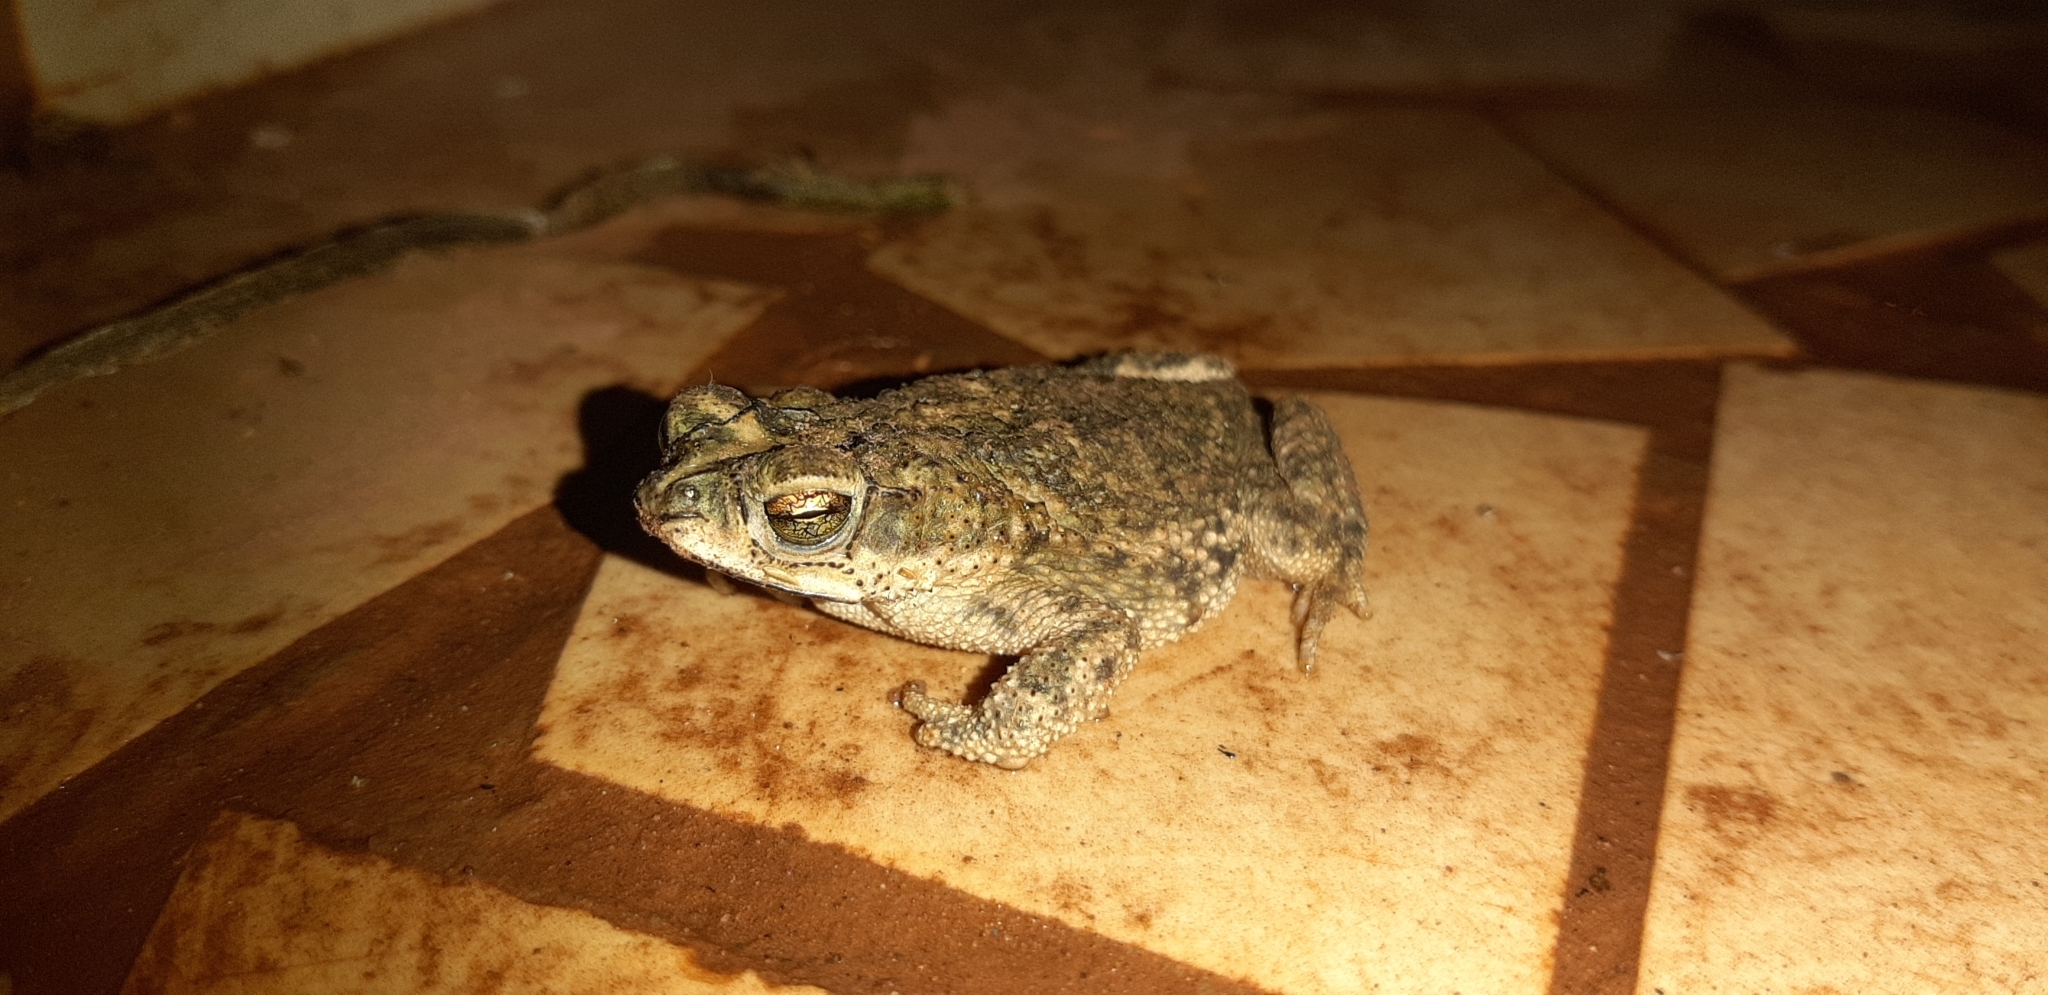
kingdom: Animalia
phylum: Chordata
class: Amphibia
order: Anura
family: Bufonidae
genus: Rhinella
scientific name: Rhinella major
